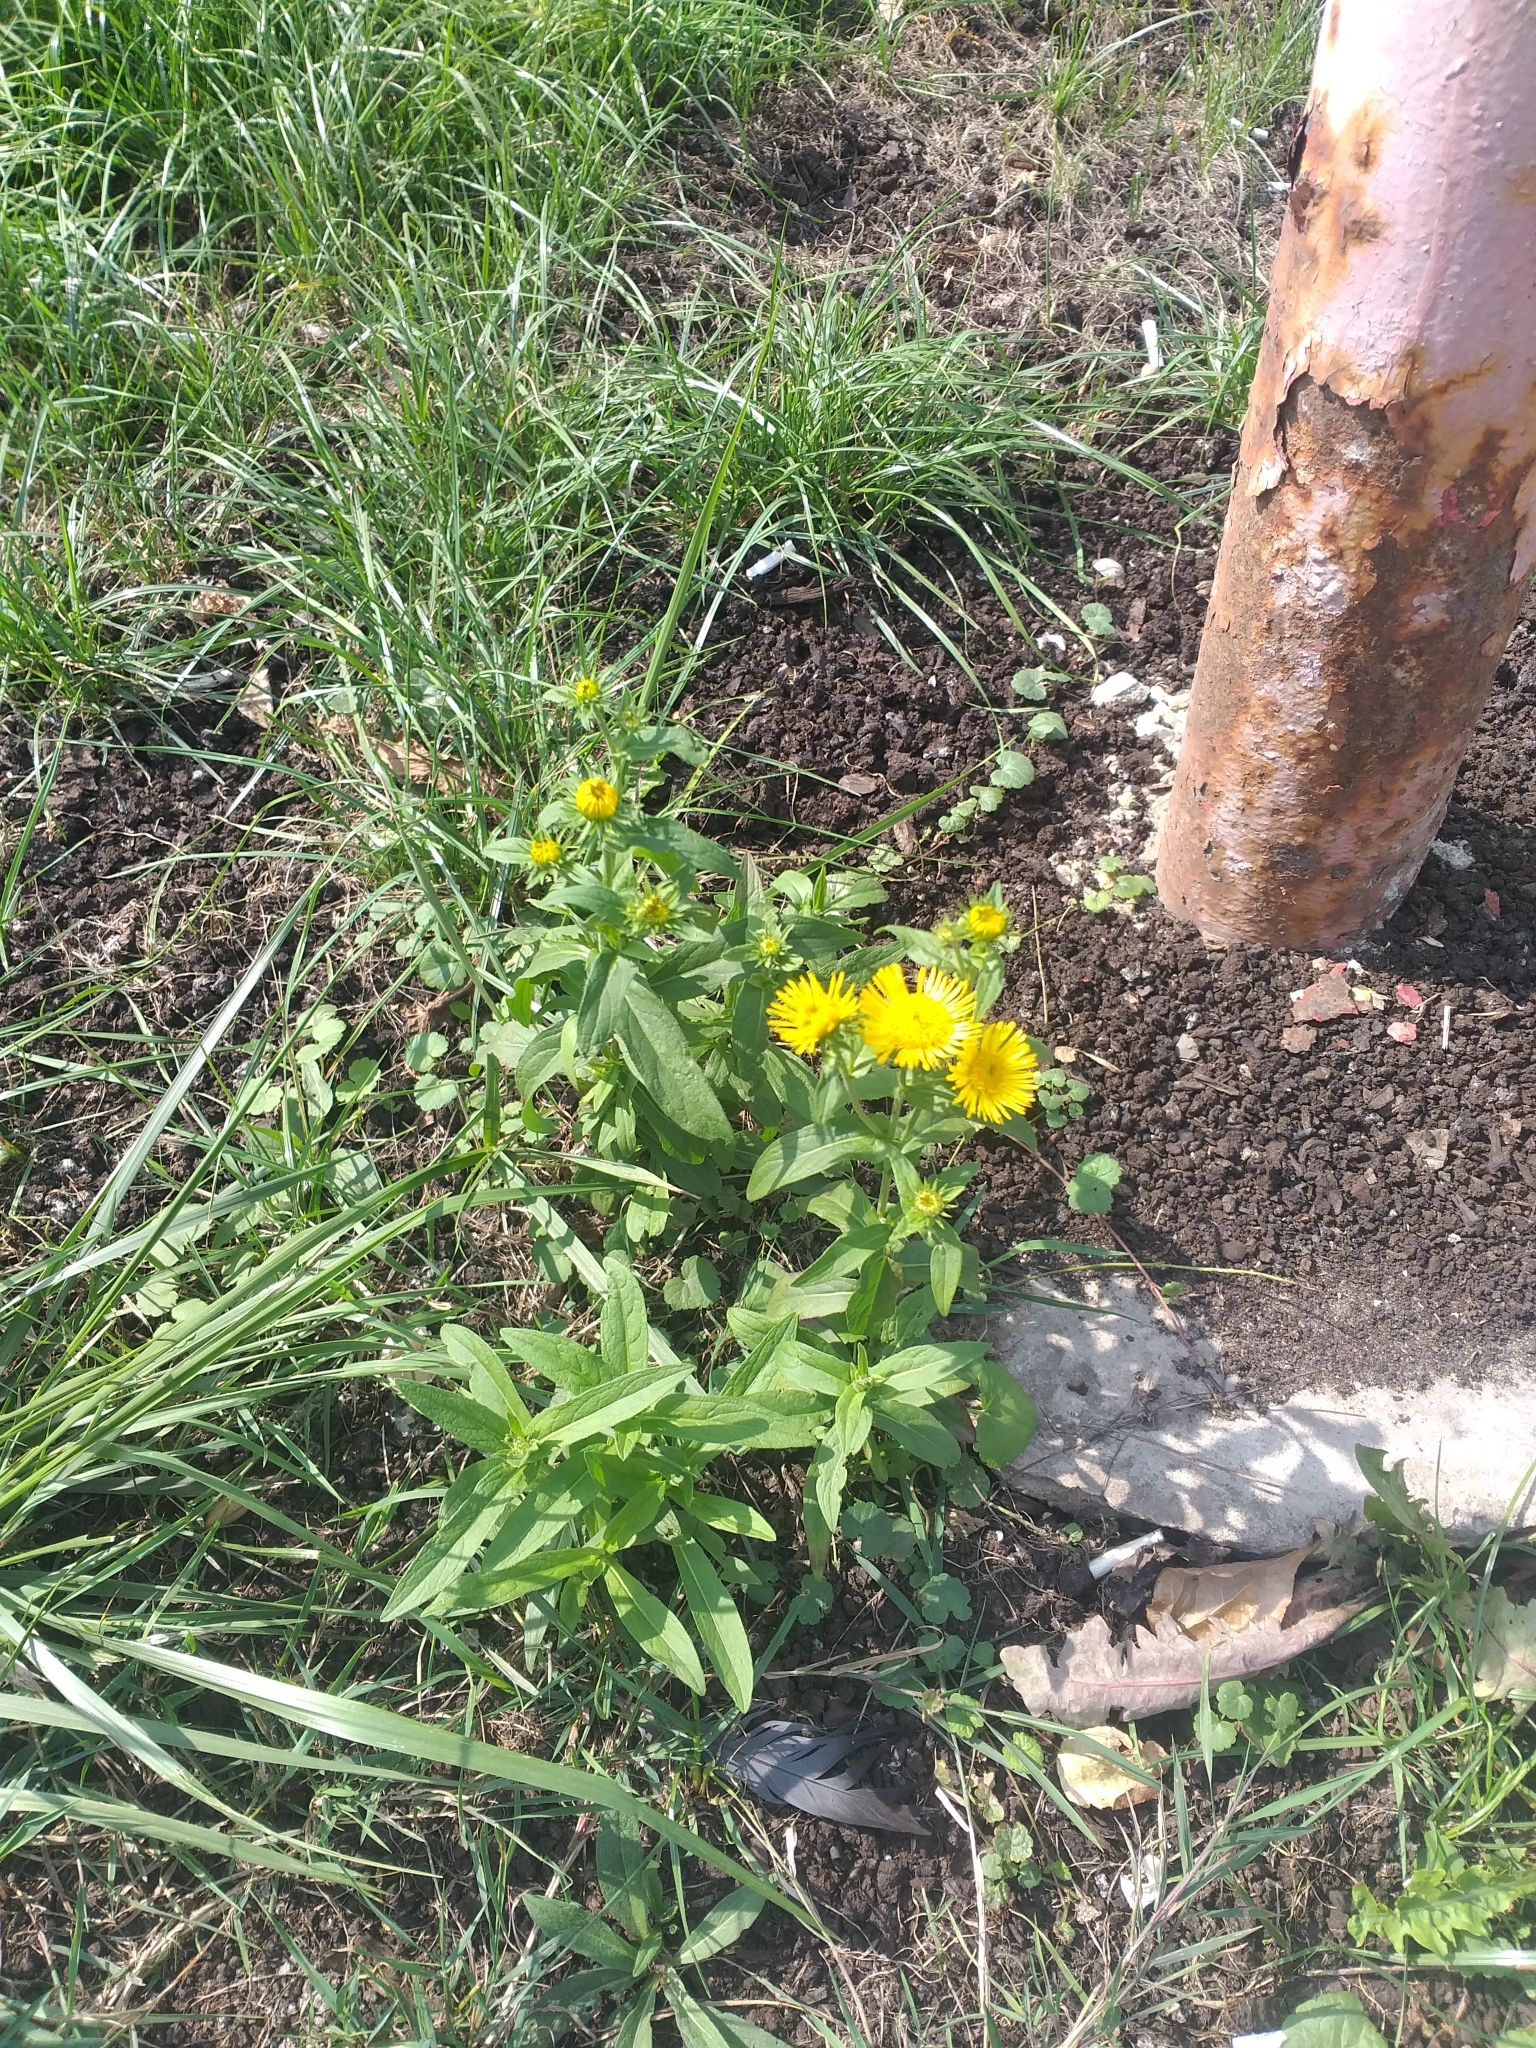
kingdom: Plantae
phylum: Tracheophyta
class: Magnoliopsida
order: Asterales
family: Asteraceae
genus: Pentanema
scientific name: Pentanema britannicum
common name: British elecampane
